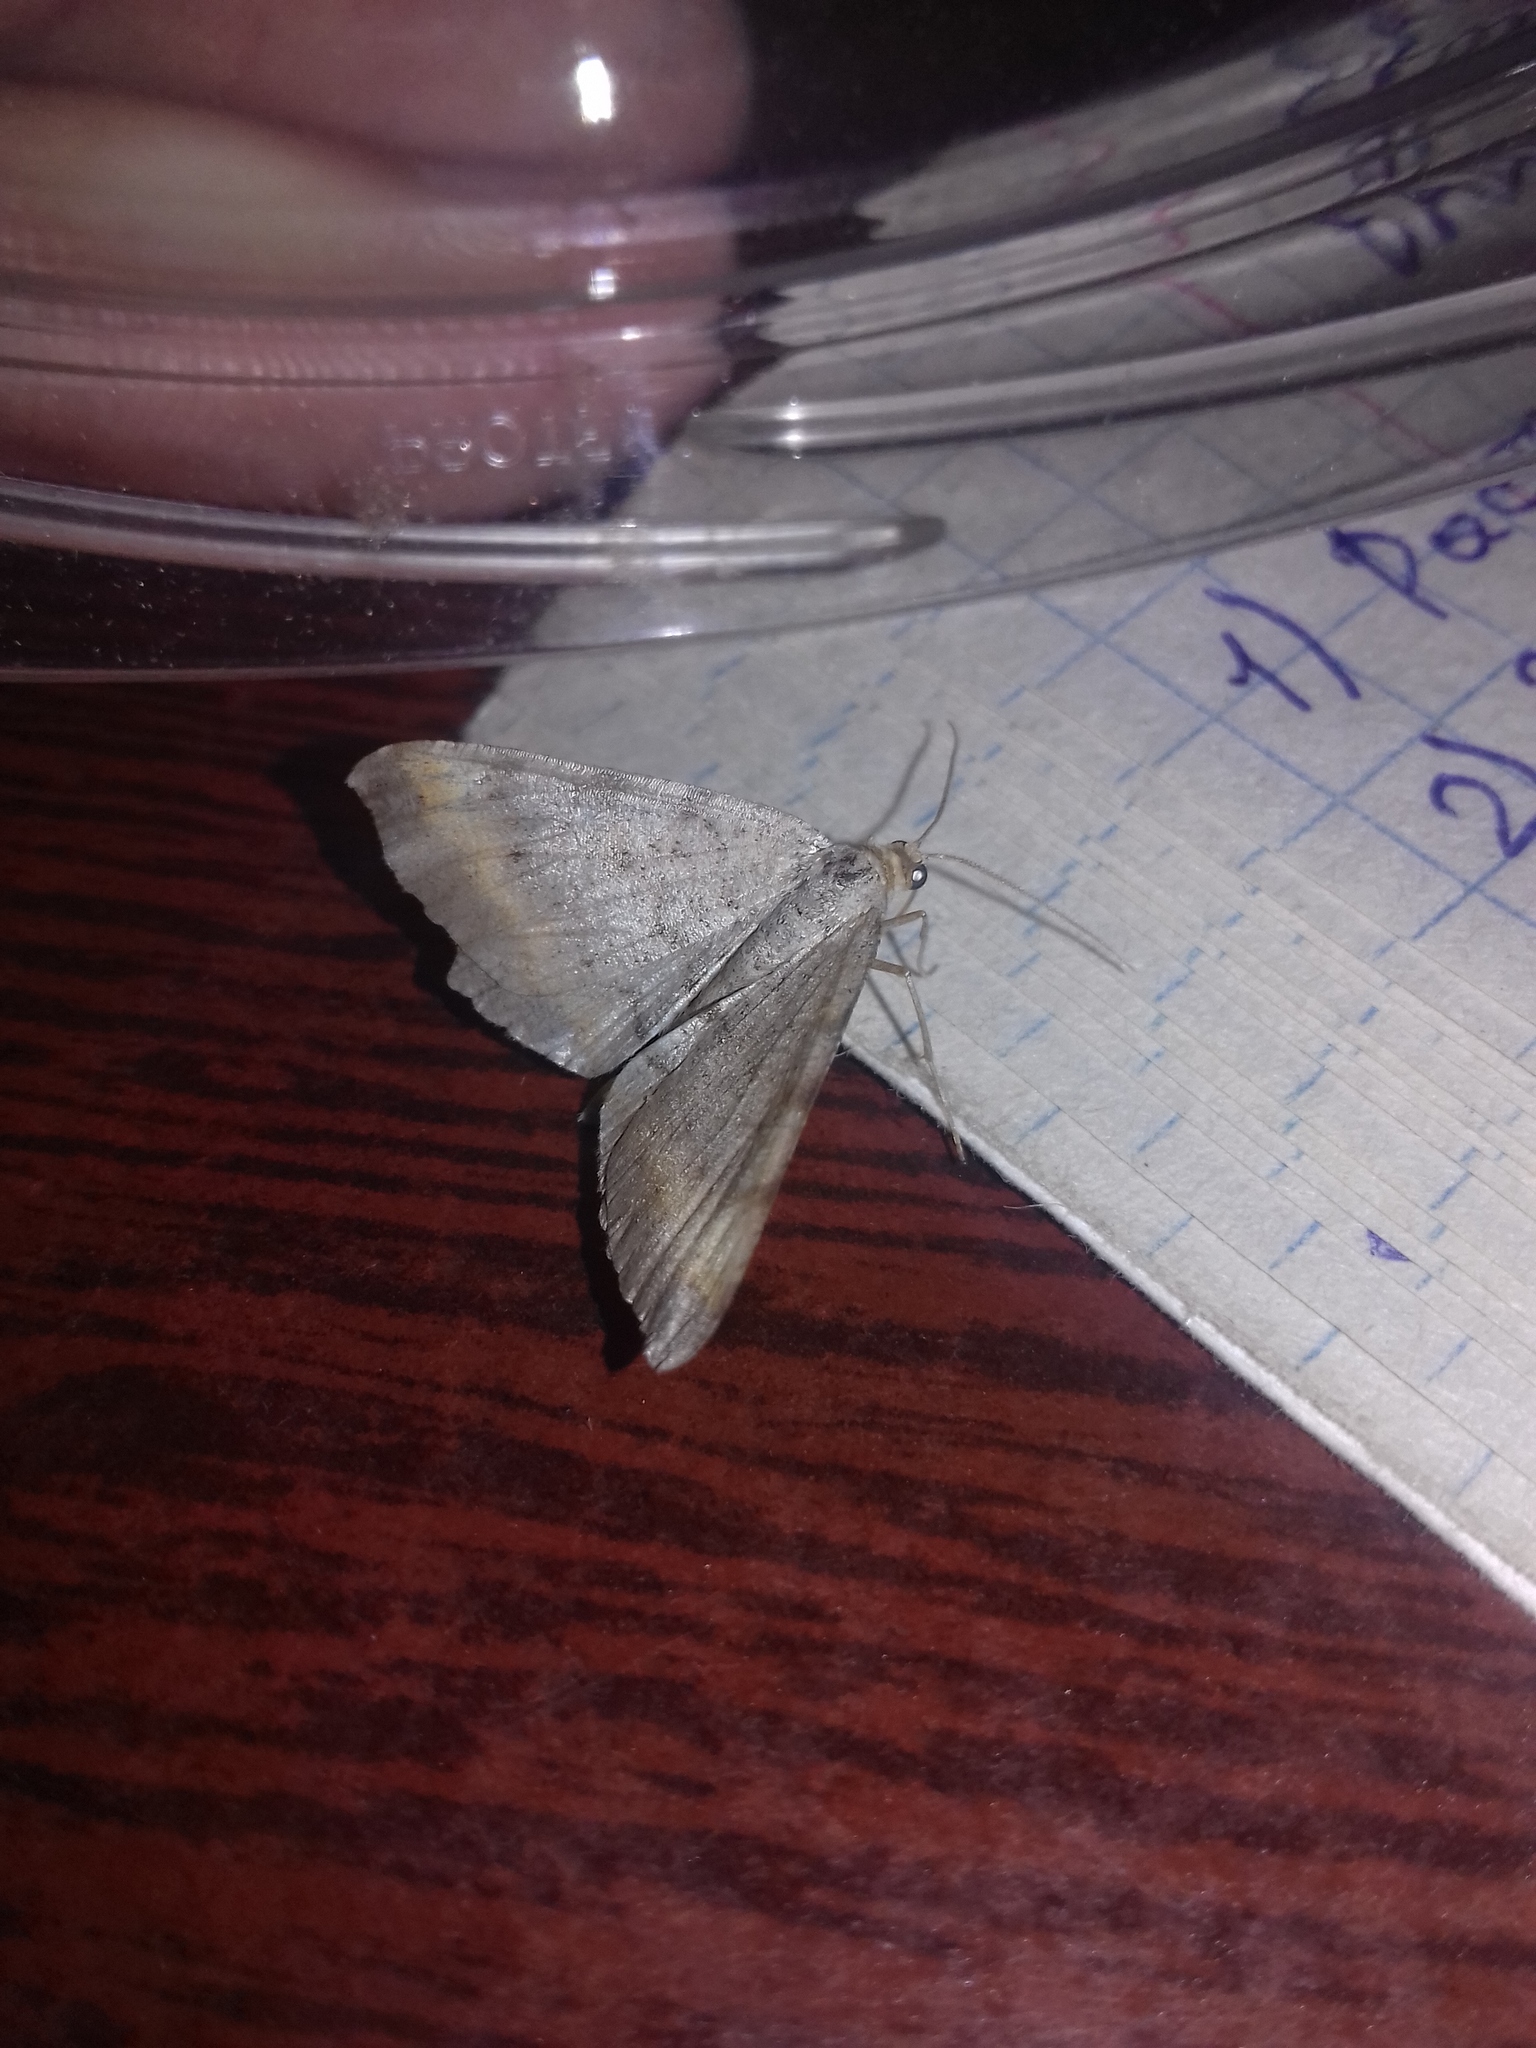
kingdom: Animalia
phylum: Arthropoda
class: Insecta
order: Lepidoptera
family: Geometridae
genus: Macaria
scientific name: Macaria liturata
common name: Tawny-barred angle
